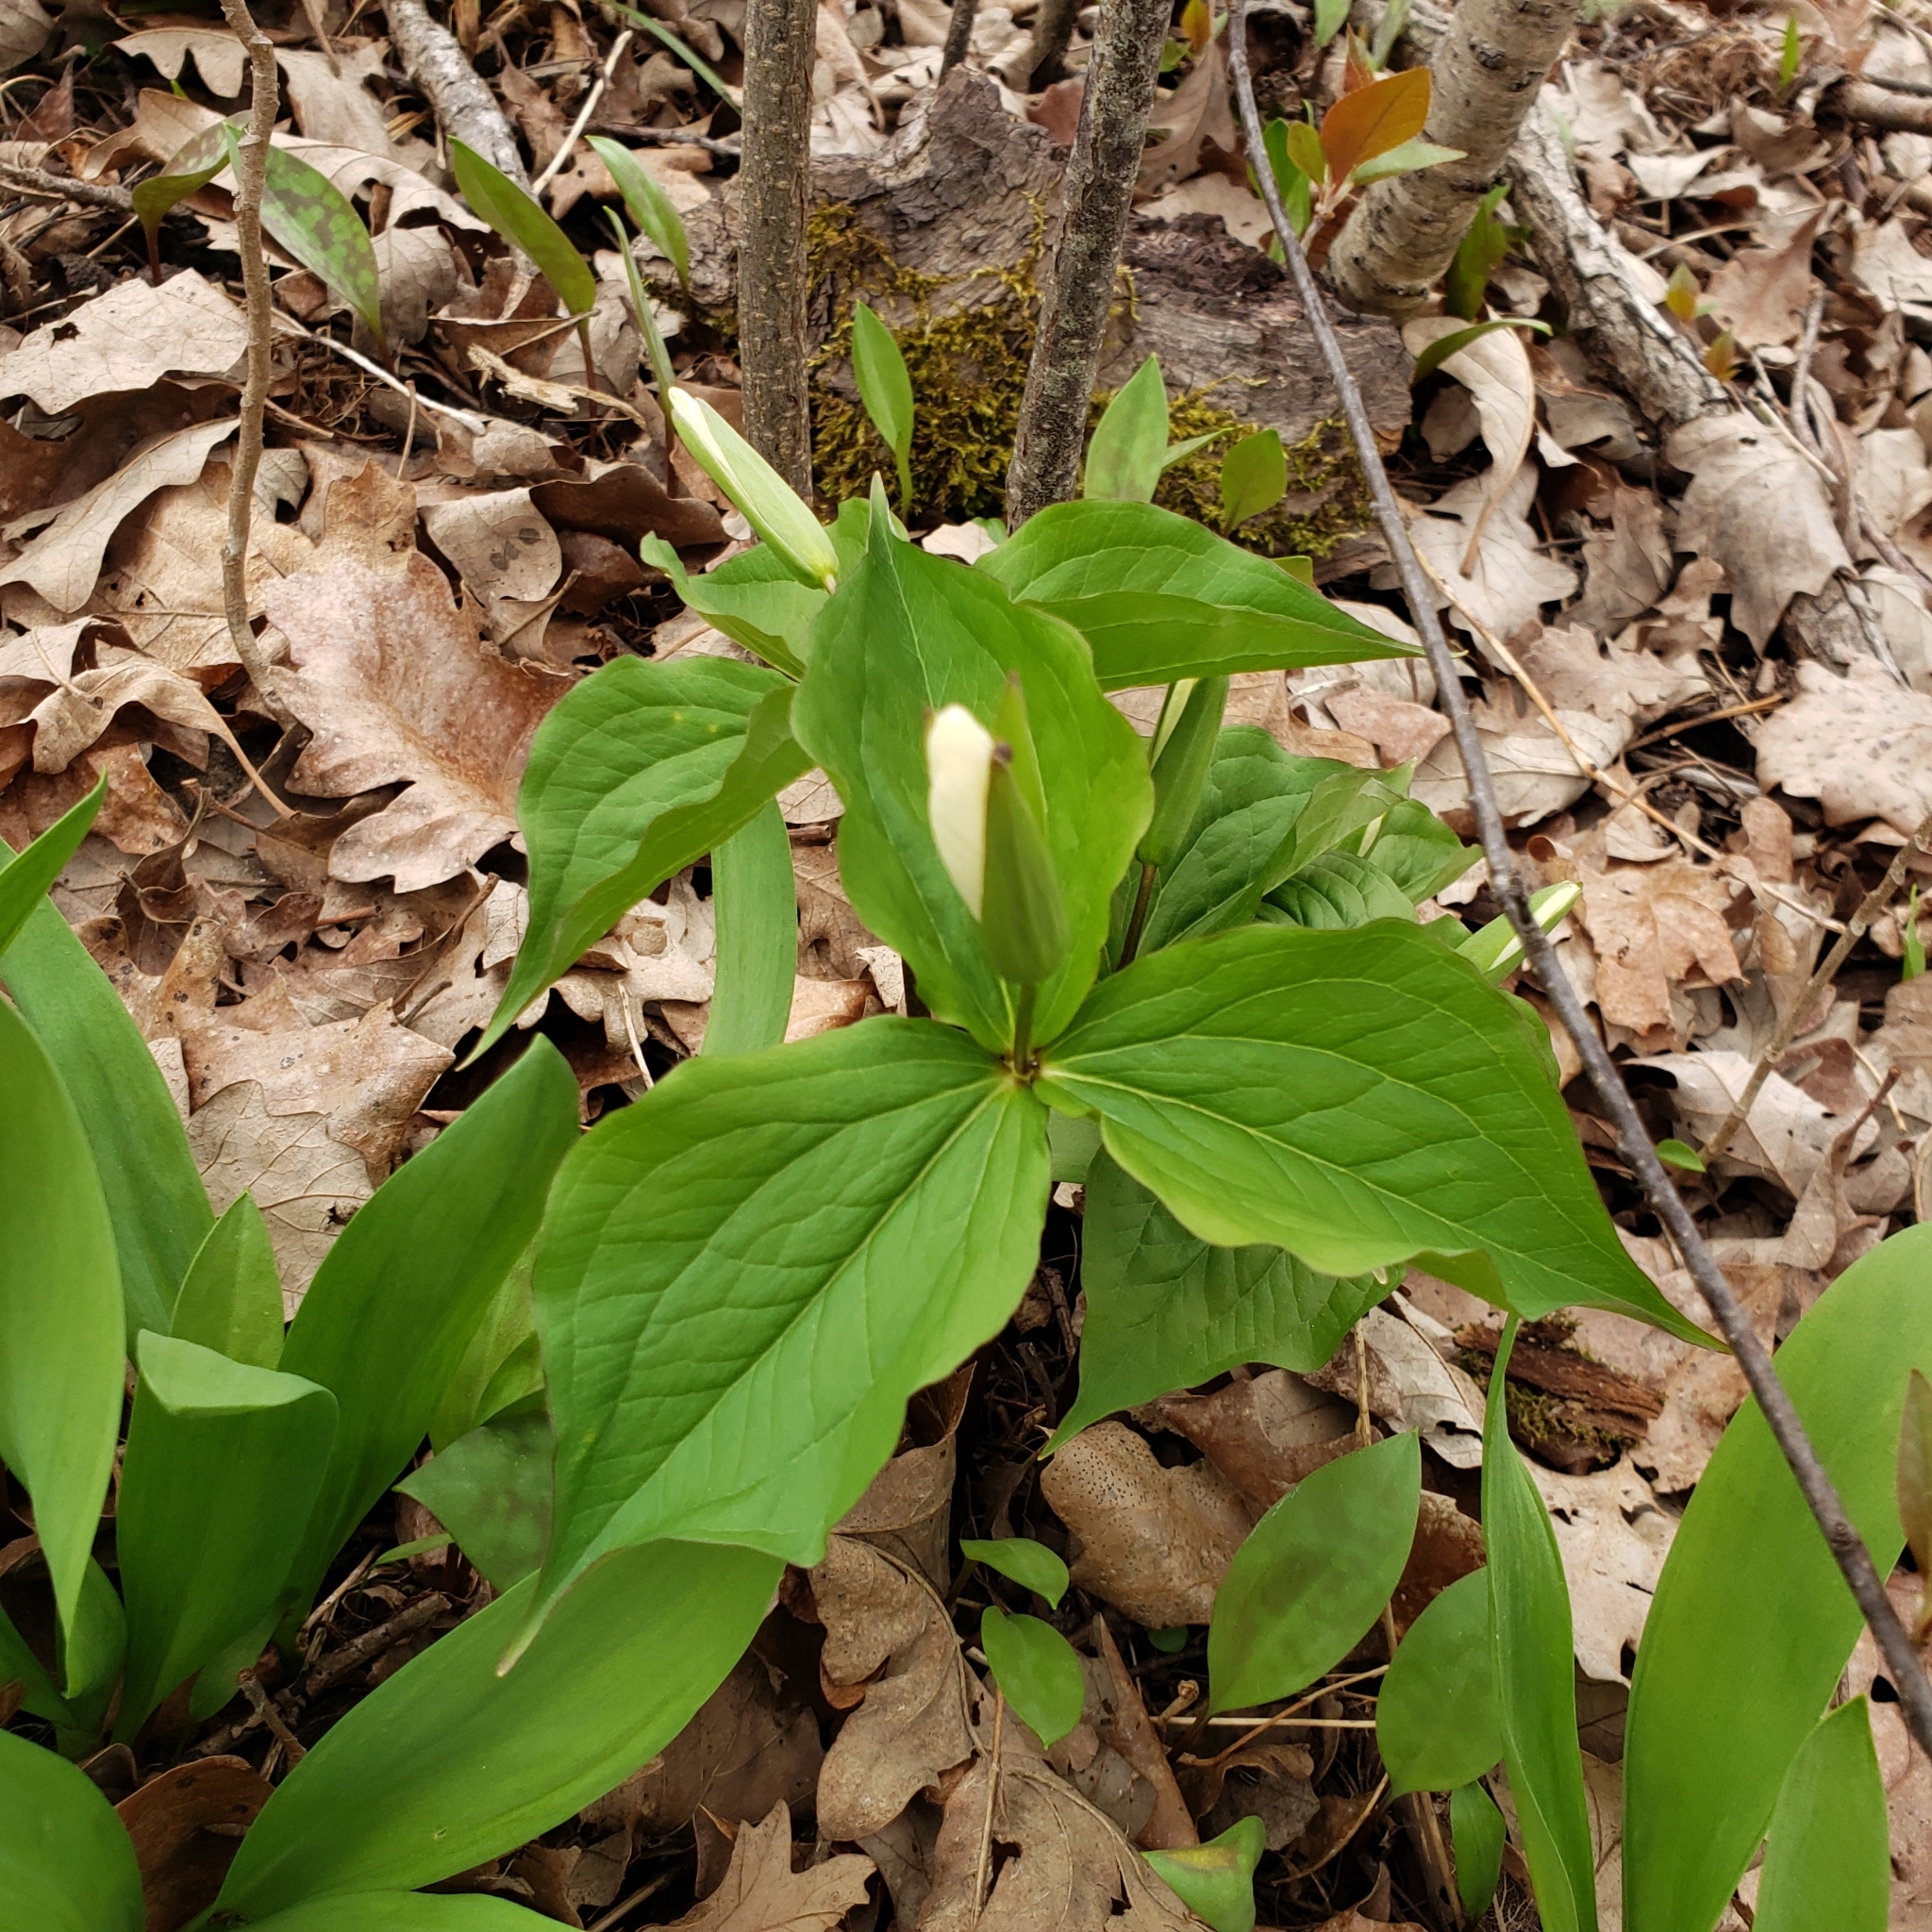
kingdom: Plantae
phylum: Tracheophyta
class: Liliopsida
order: Liliales
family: Melanthiaceae
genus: Trillium
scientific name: Trillium grandiflorum
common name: Great white trillium
